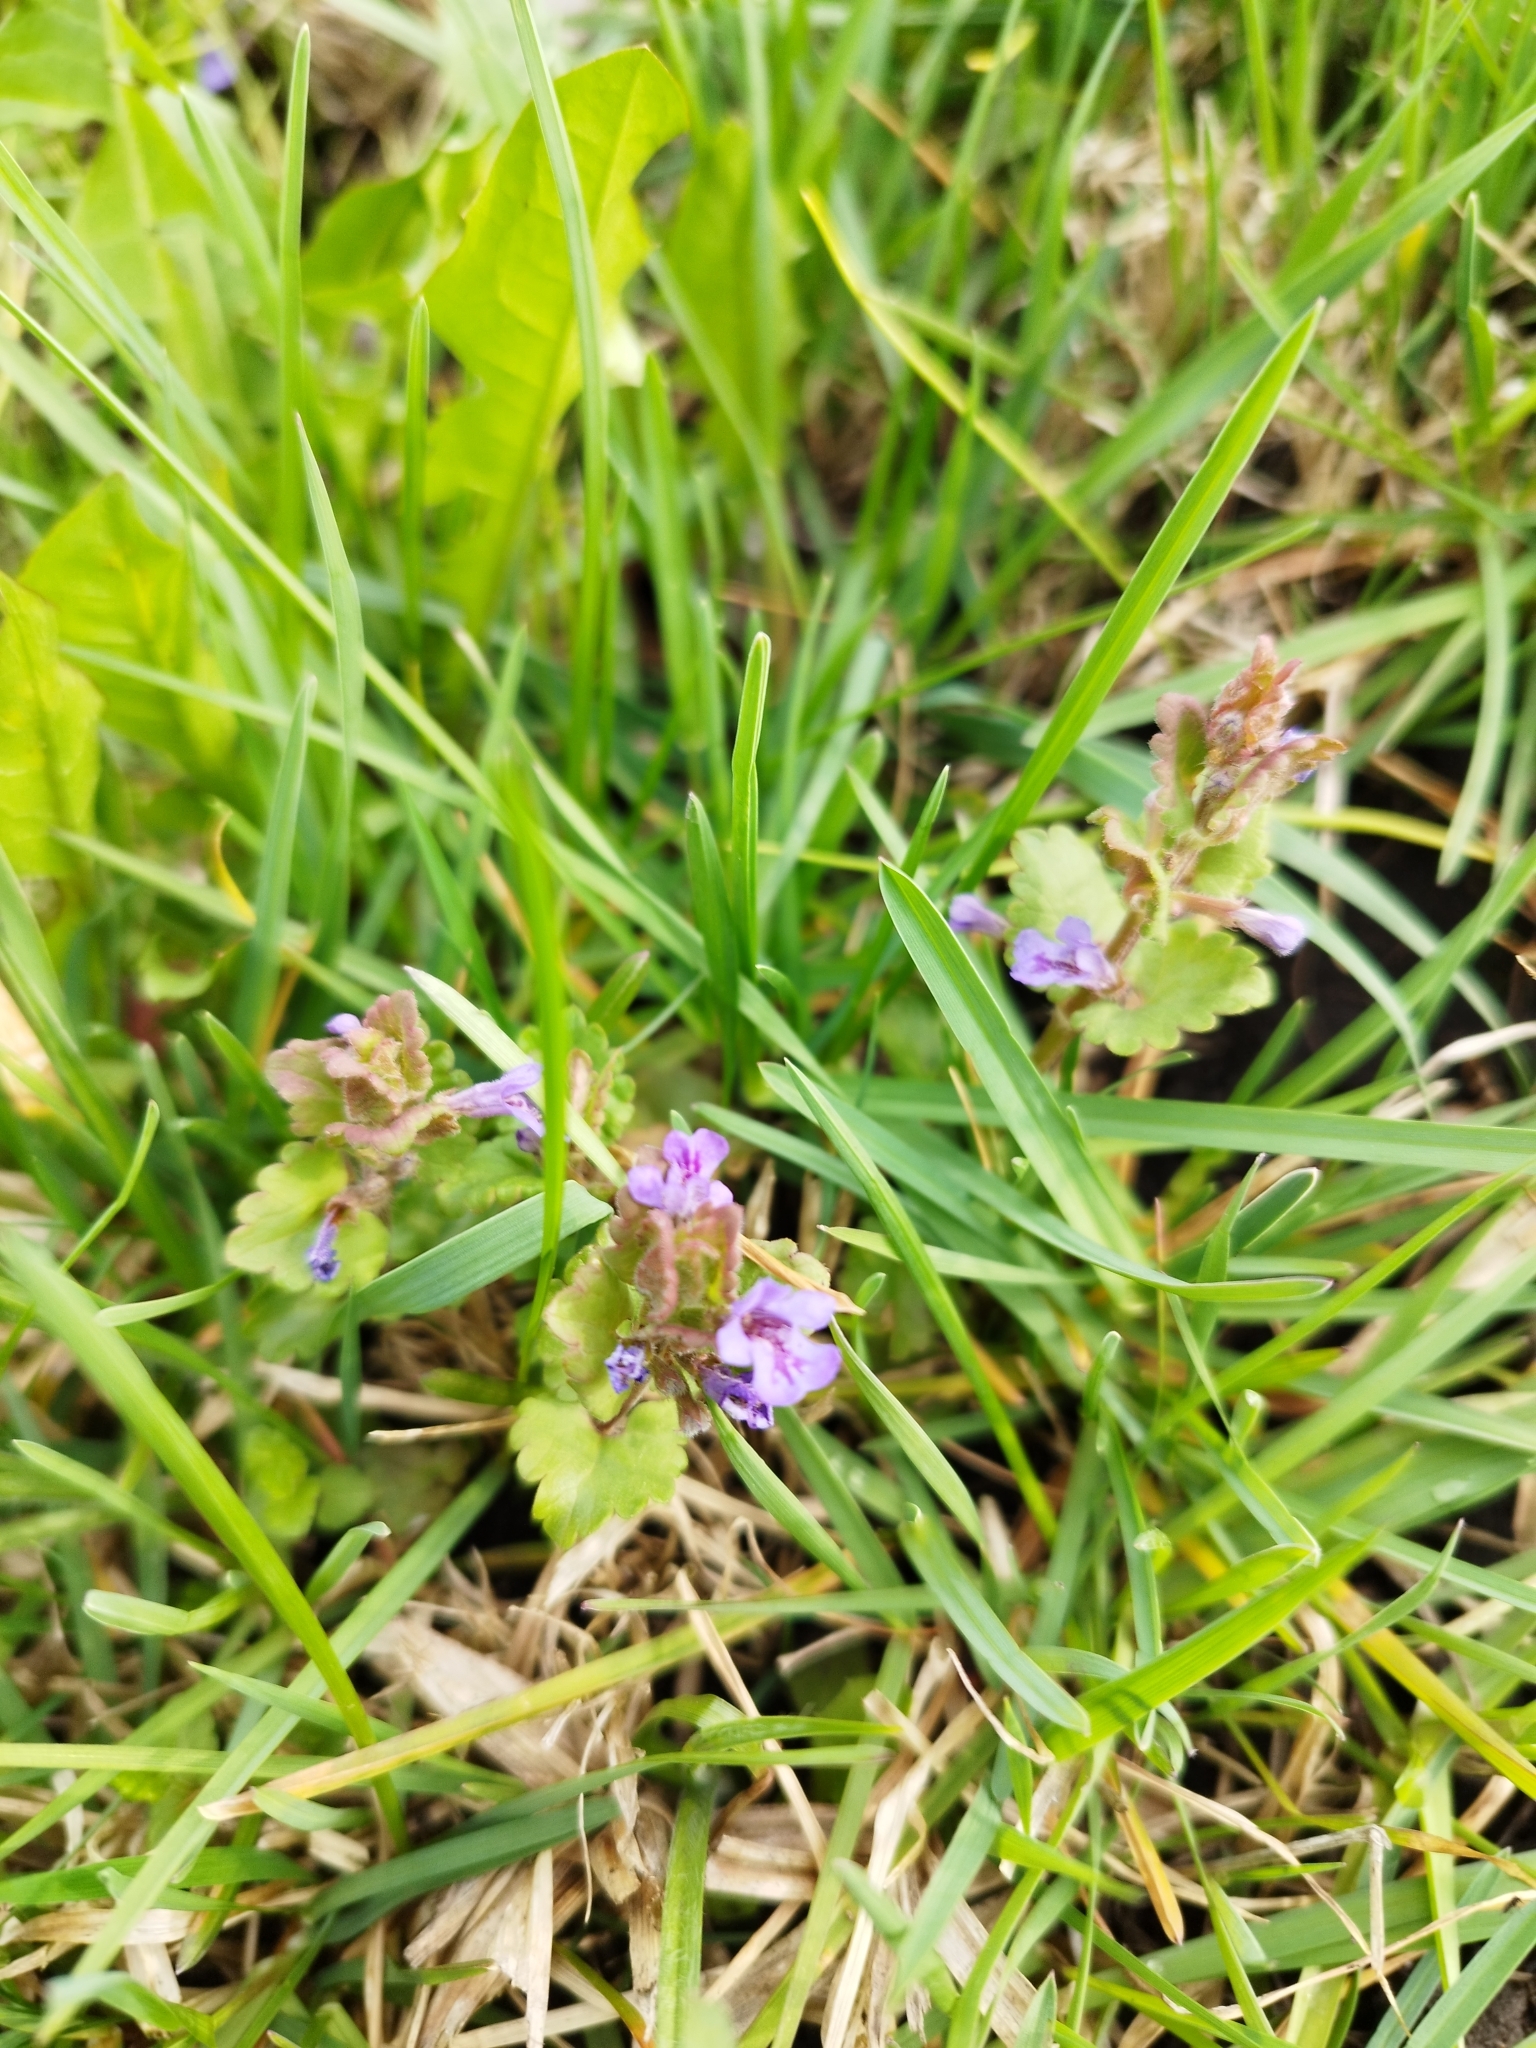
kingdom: Plantae
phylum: Tracheophyta
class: Magnoliopsida
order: Lamiales
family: Lamiaceae
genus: Glechoma
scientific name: Glechoma hederacea
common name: Ground ivy
